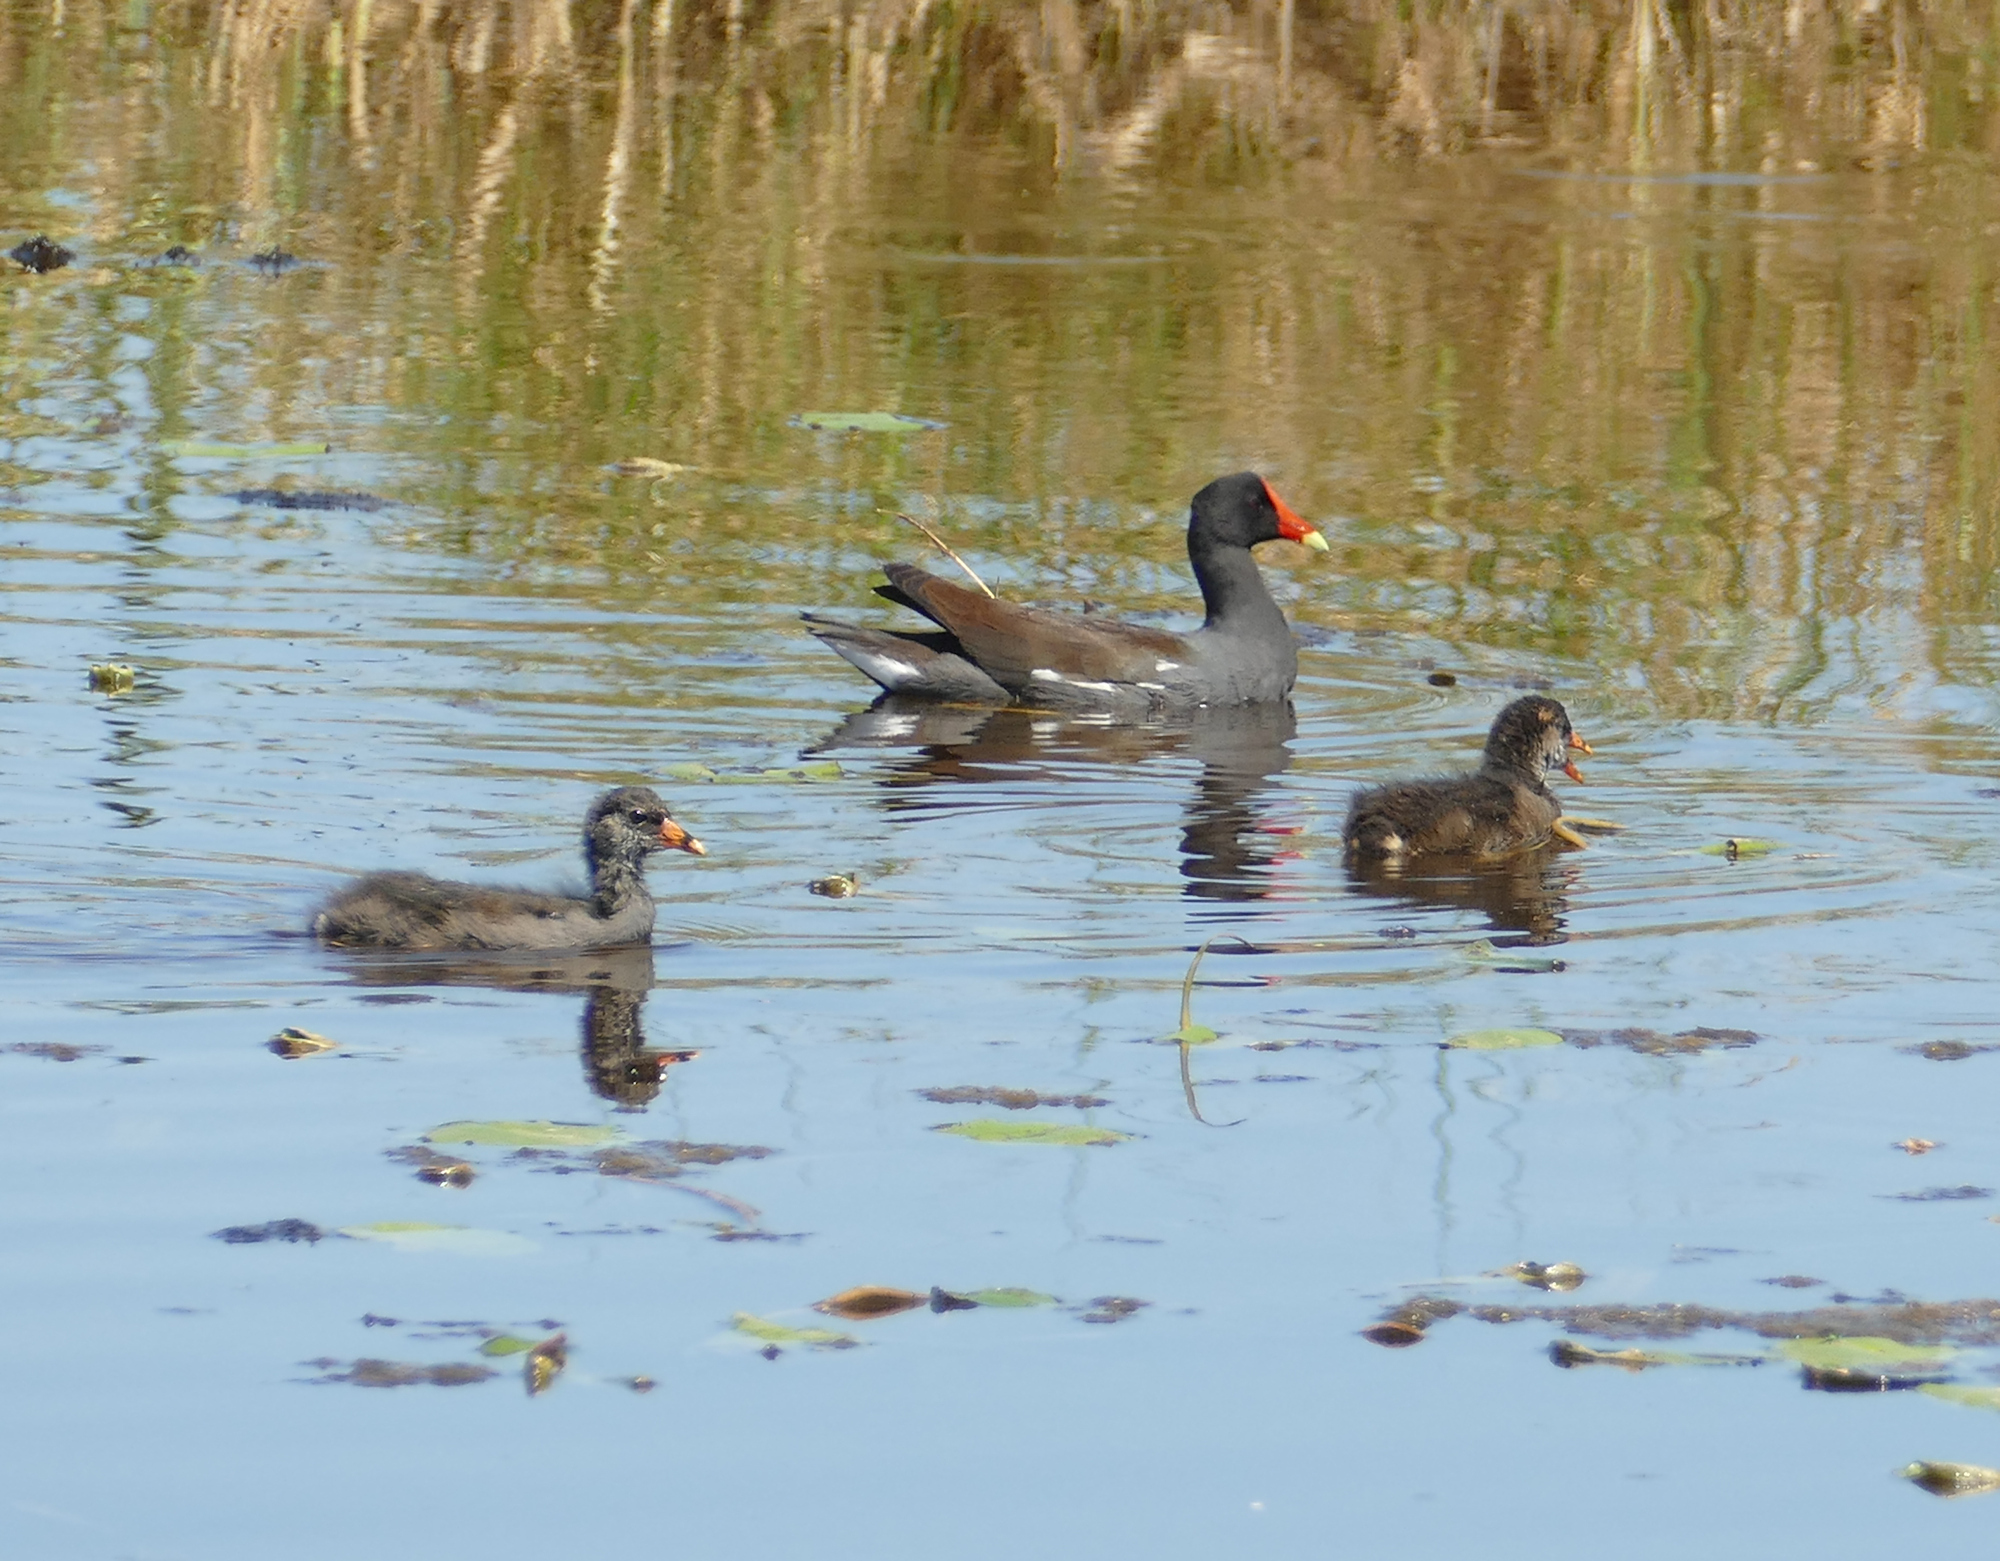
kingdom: Animalia
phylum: Chordata
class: Aves
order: Gruiformes
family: Rallidae
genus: Gallinula
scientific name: Gallinula chloropus
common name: Common moorhen
